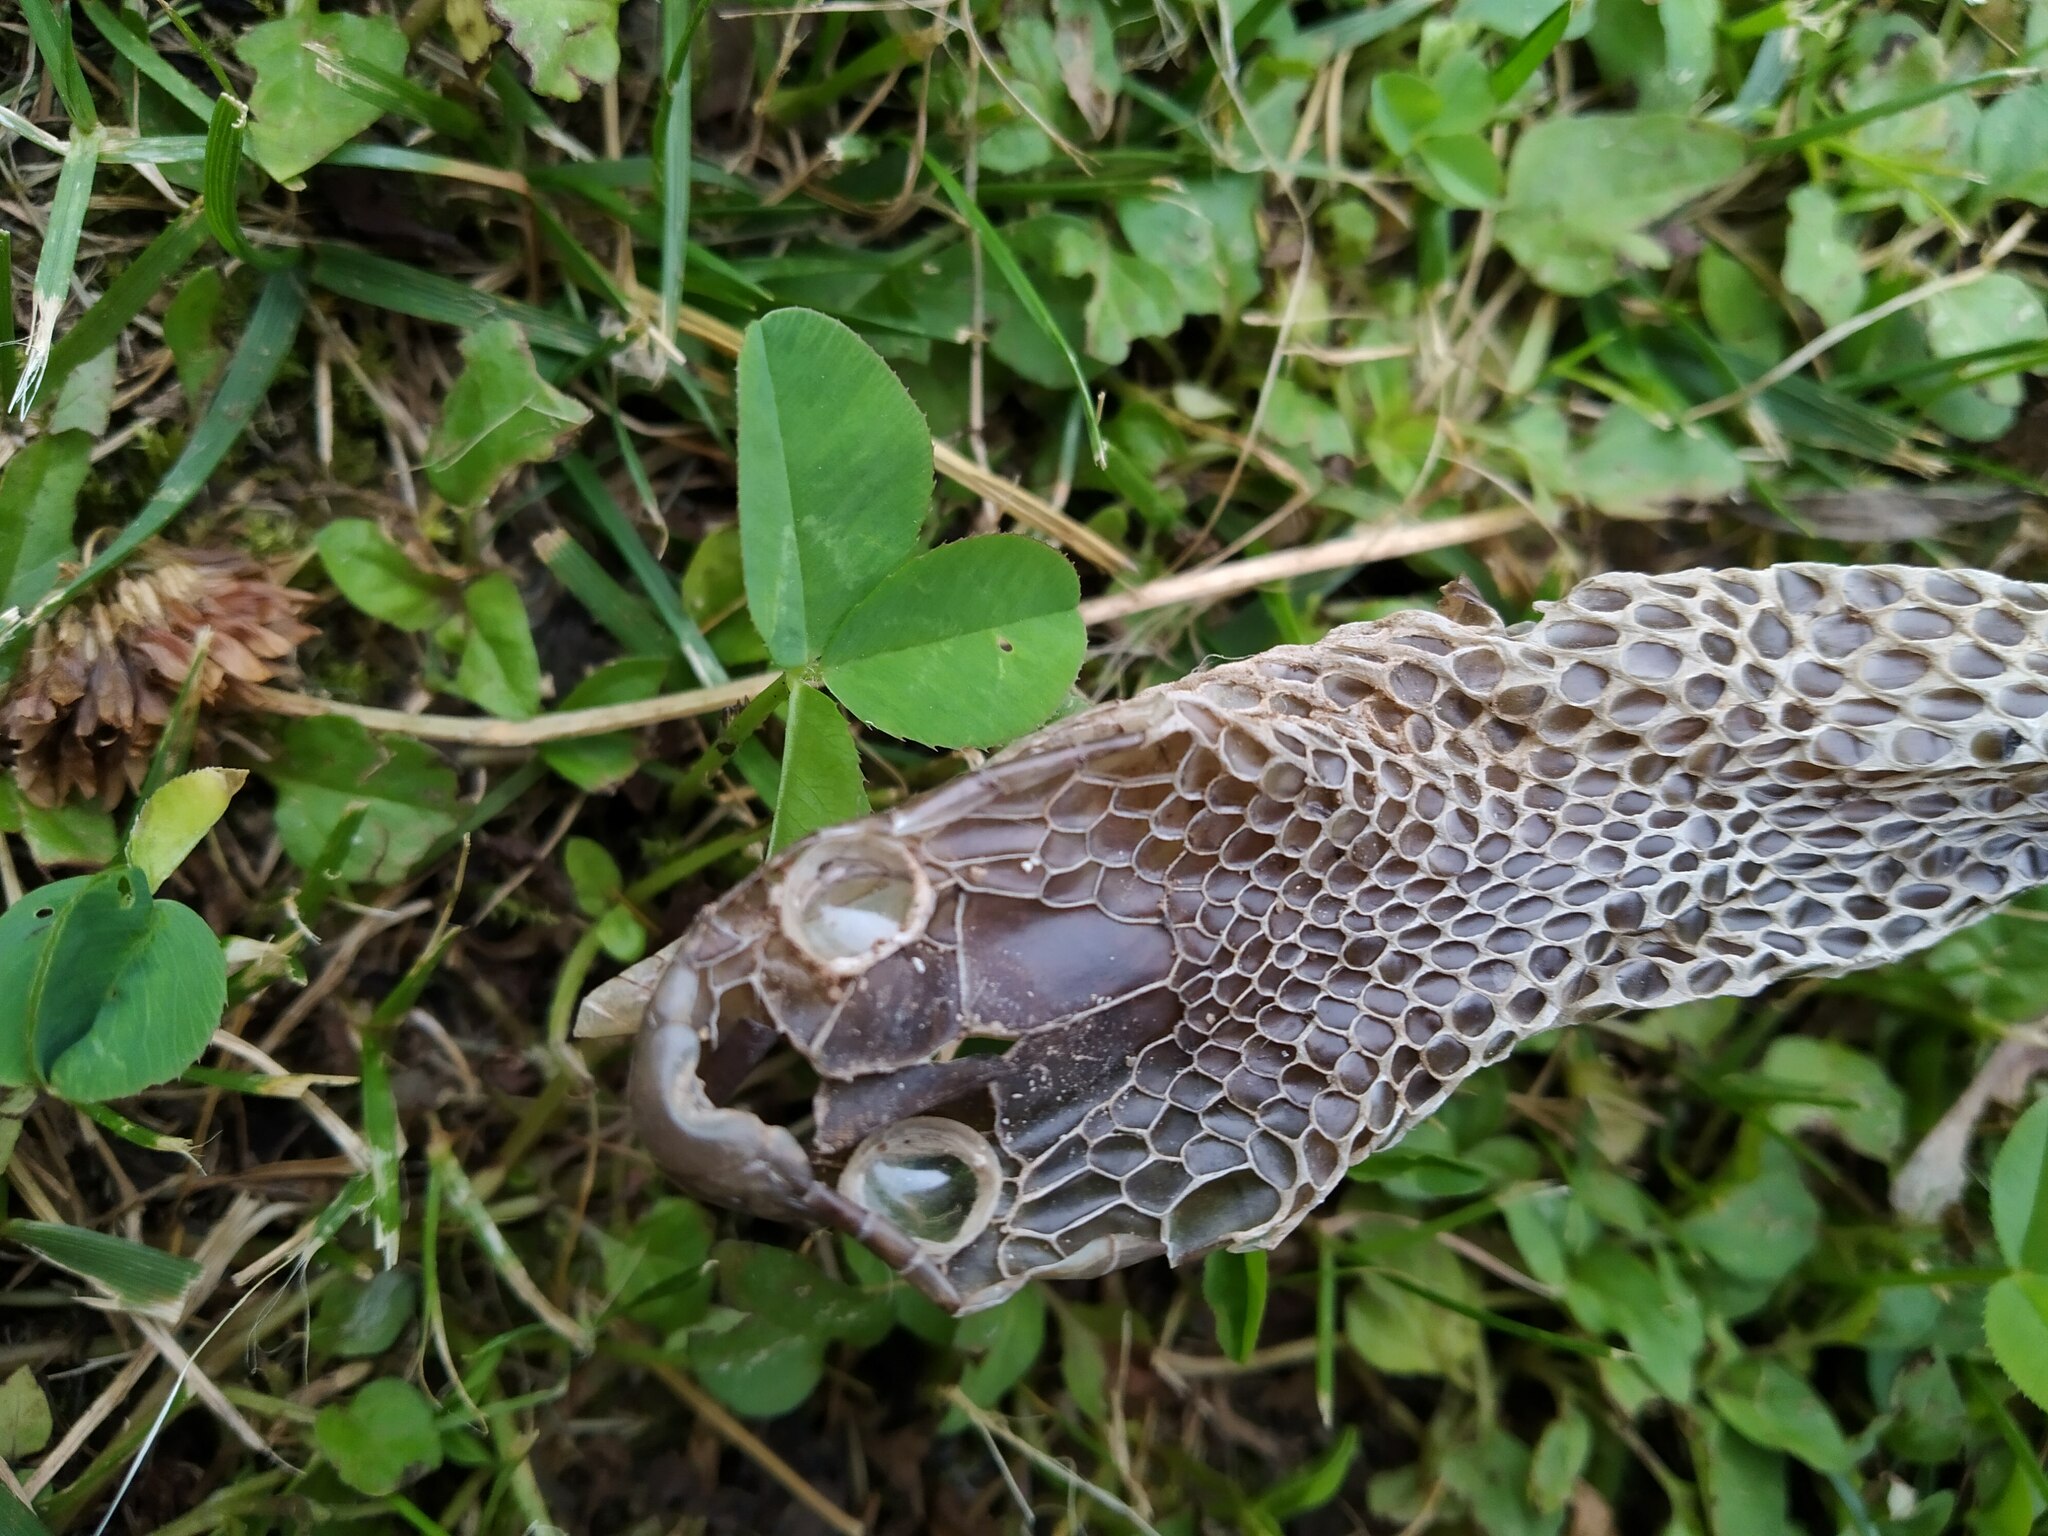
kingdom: Animalia
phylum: Chordata
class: Squamata
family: Colubridae
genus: Hierophis
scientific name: Hierophis viridiflavus
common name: Green whip snake
